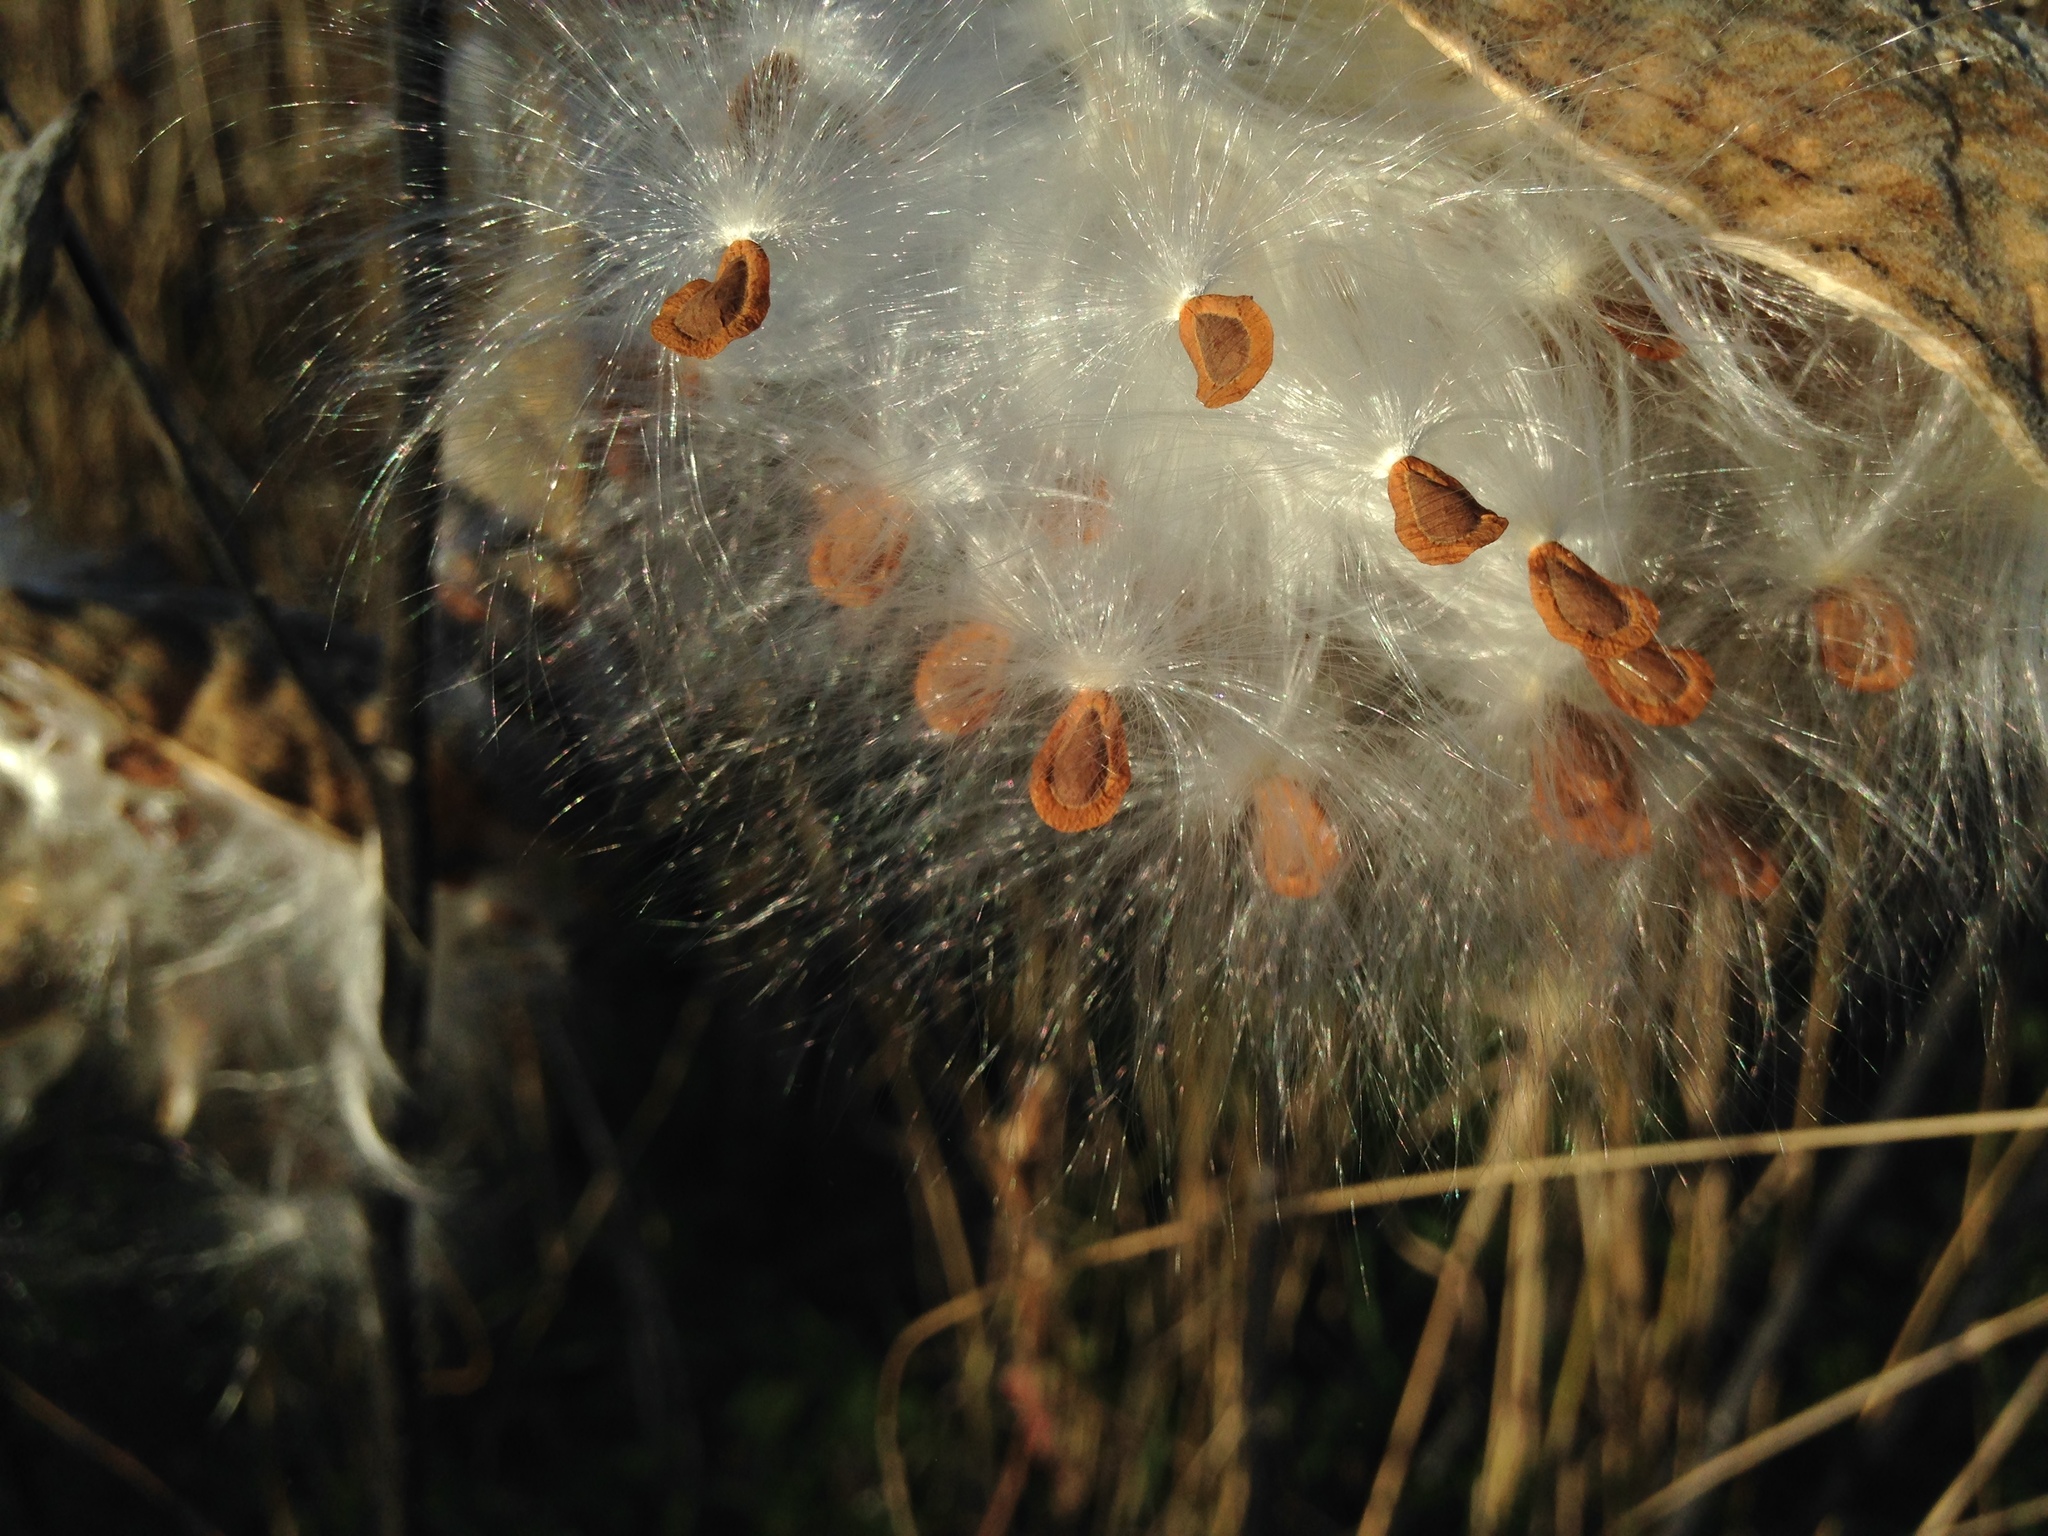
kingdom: Plantae
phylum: Tracheophyta
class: Magnoliopsida
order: Gentianales
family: Apocynaceae
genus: Asclepias
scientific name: Asclepias syriaca
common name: Common milkweed
